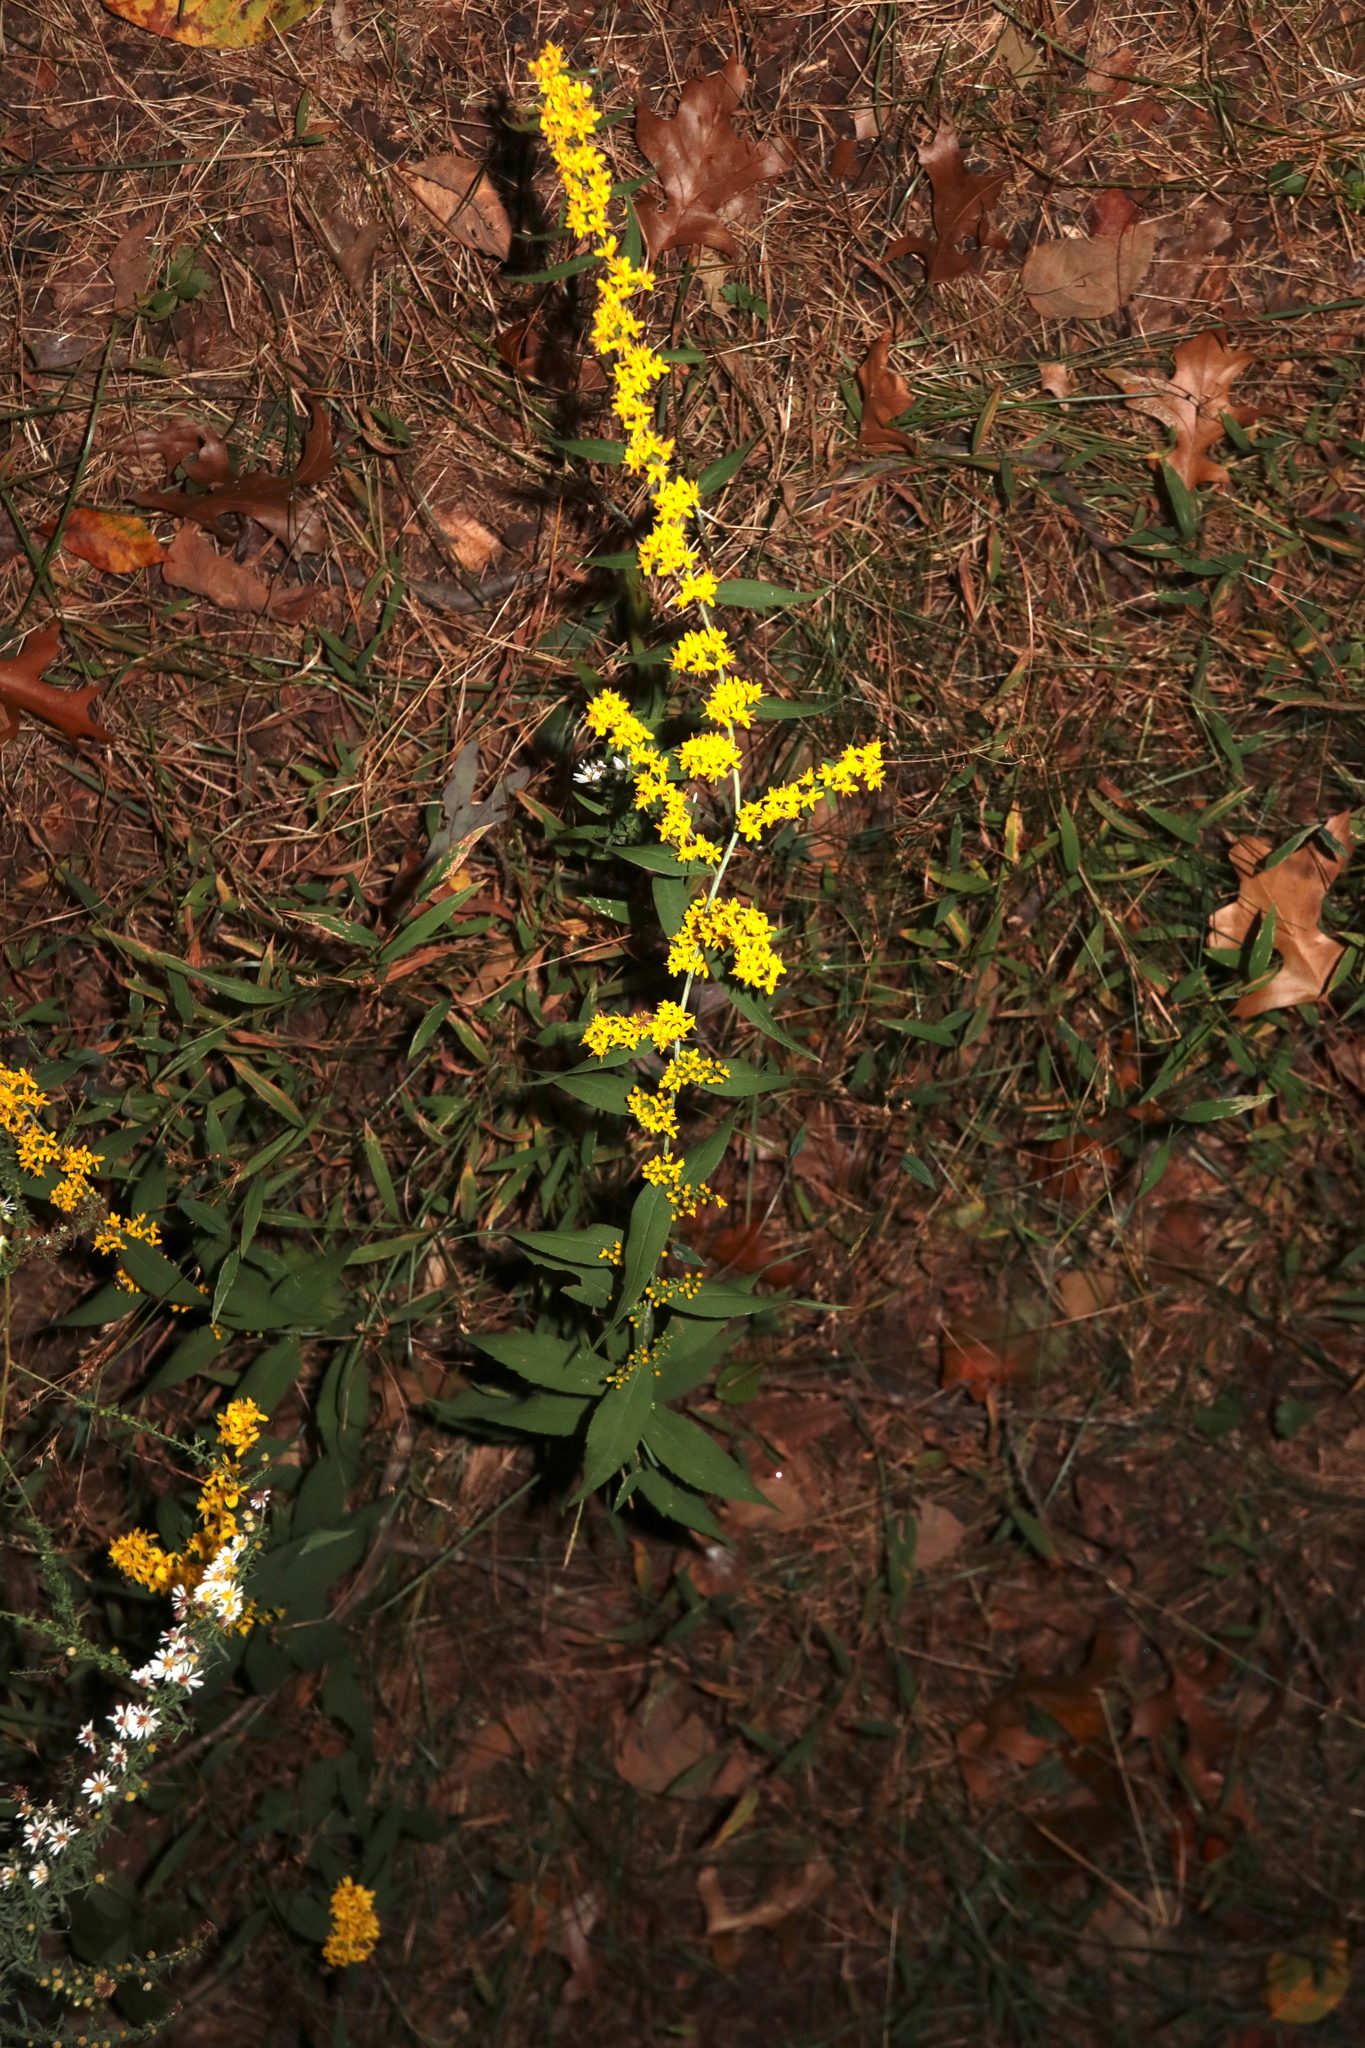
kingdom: Plantae
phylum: Tracheophyta
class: Magnoliopsida
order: Asterales
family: Asteraceae
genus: Solidago
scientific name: Solidago caesia
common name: Woodland goldenrod
